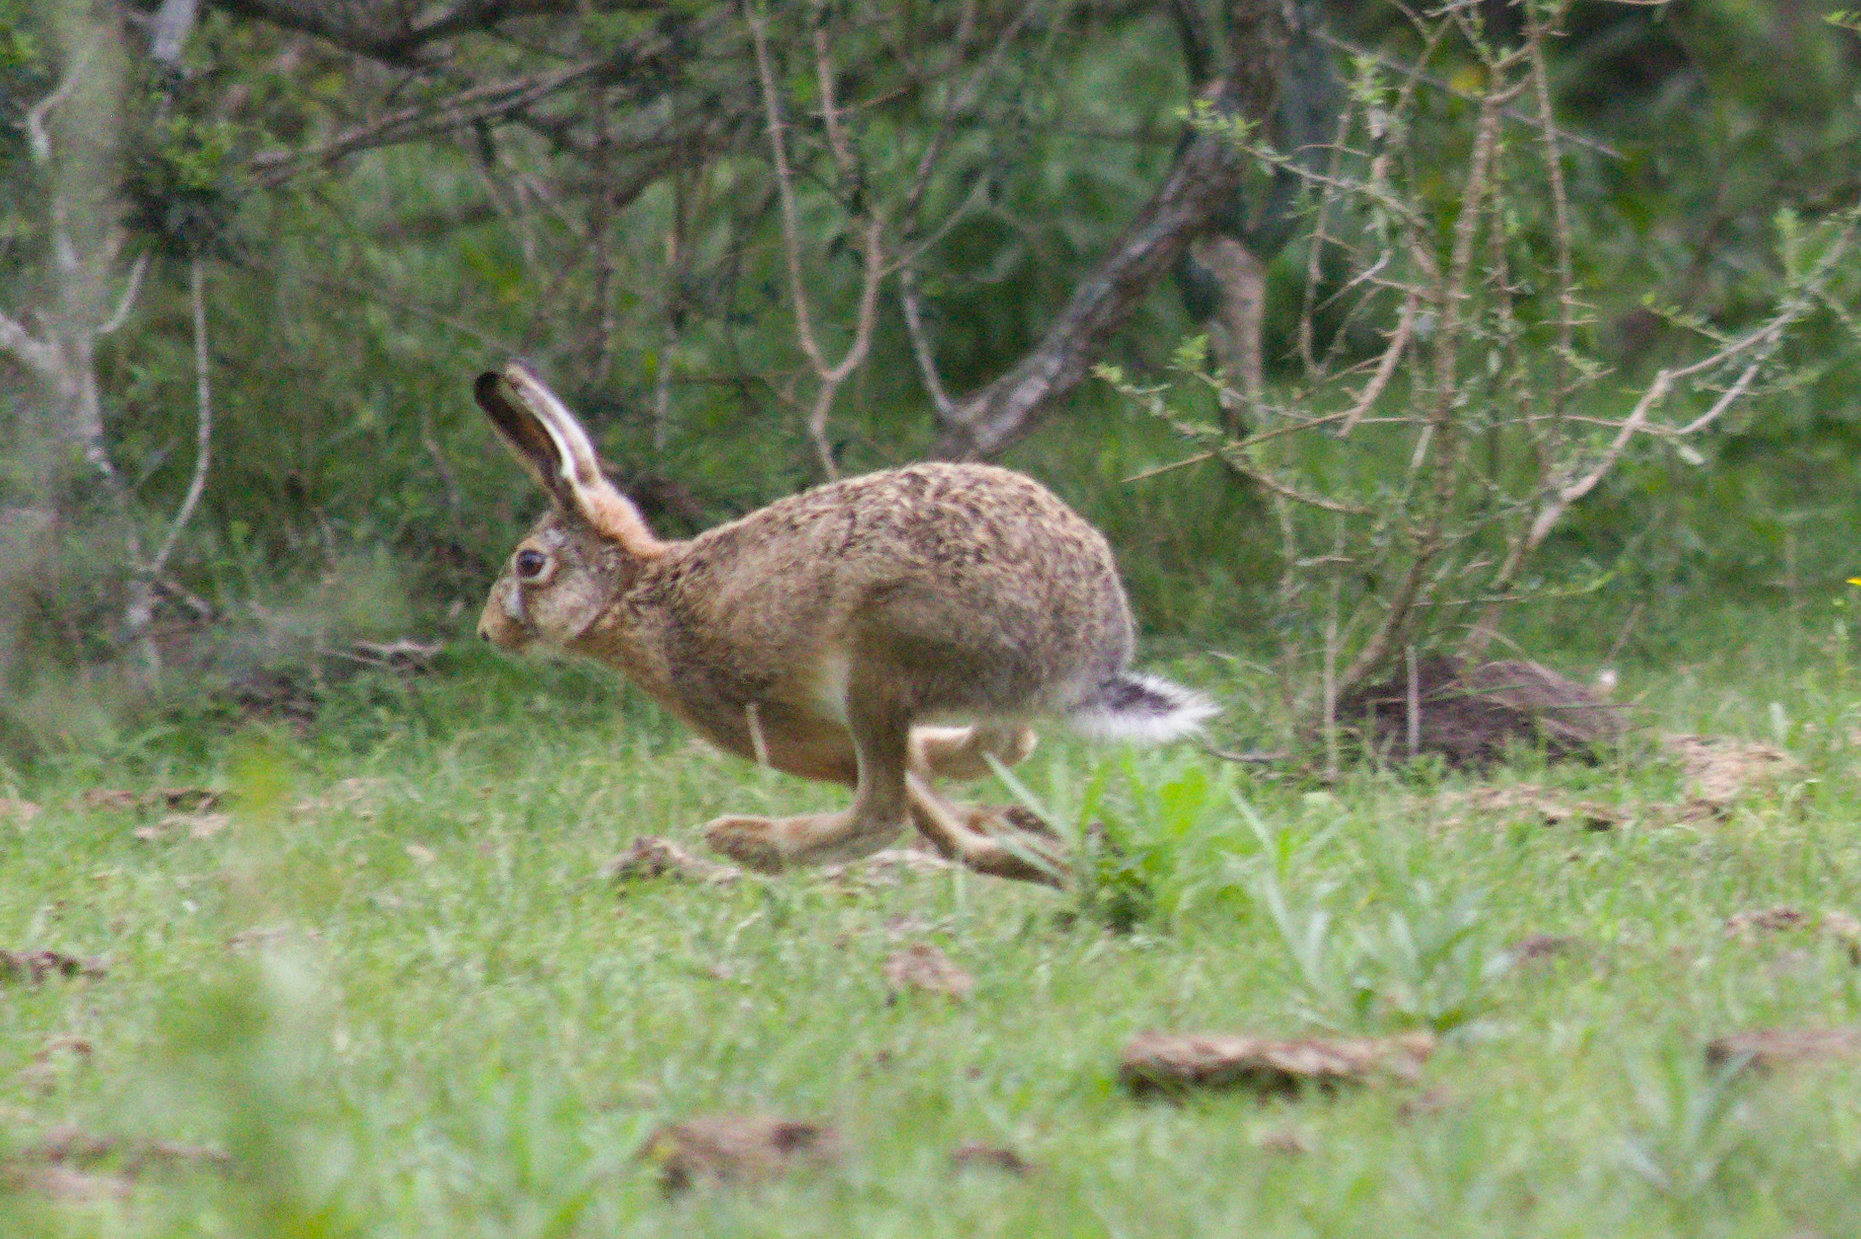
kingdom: Animalia
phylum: Chordata
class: Mammalia
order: Lagomorpha
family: Leporidae
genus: Lepus
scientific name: Lepus europaeus
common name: European hare
